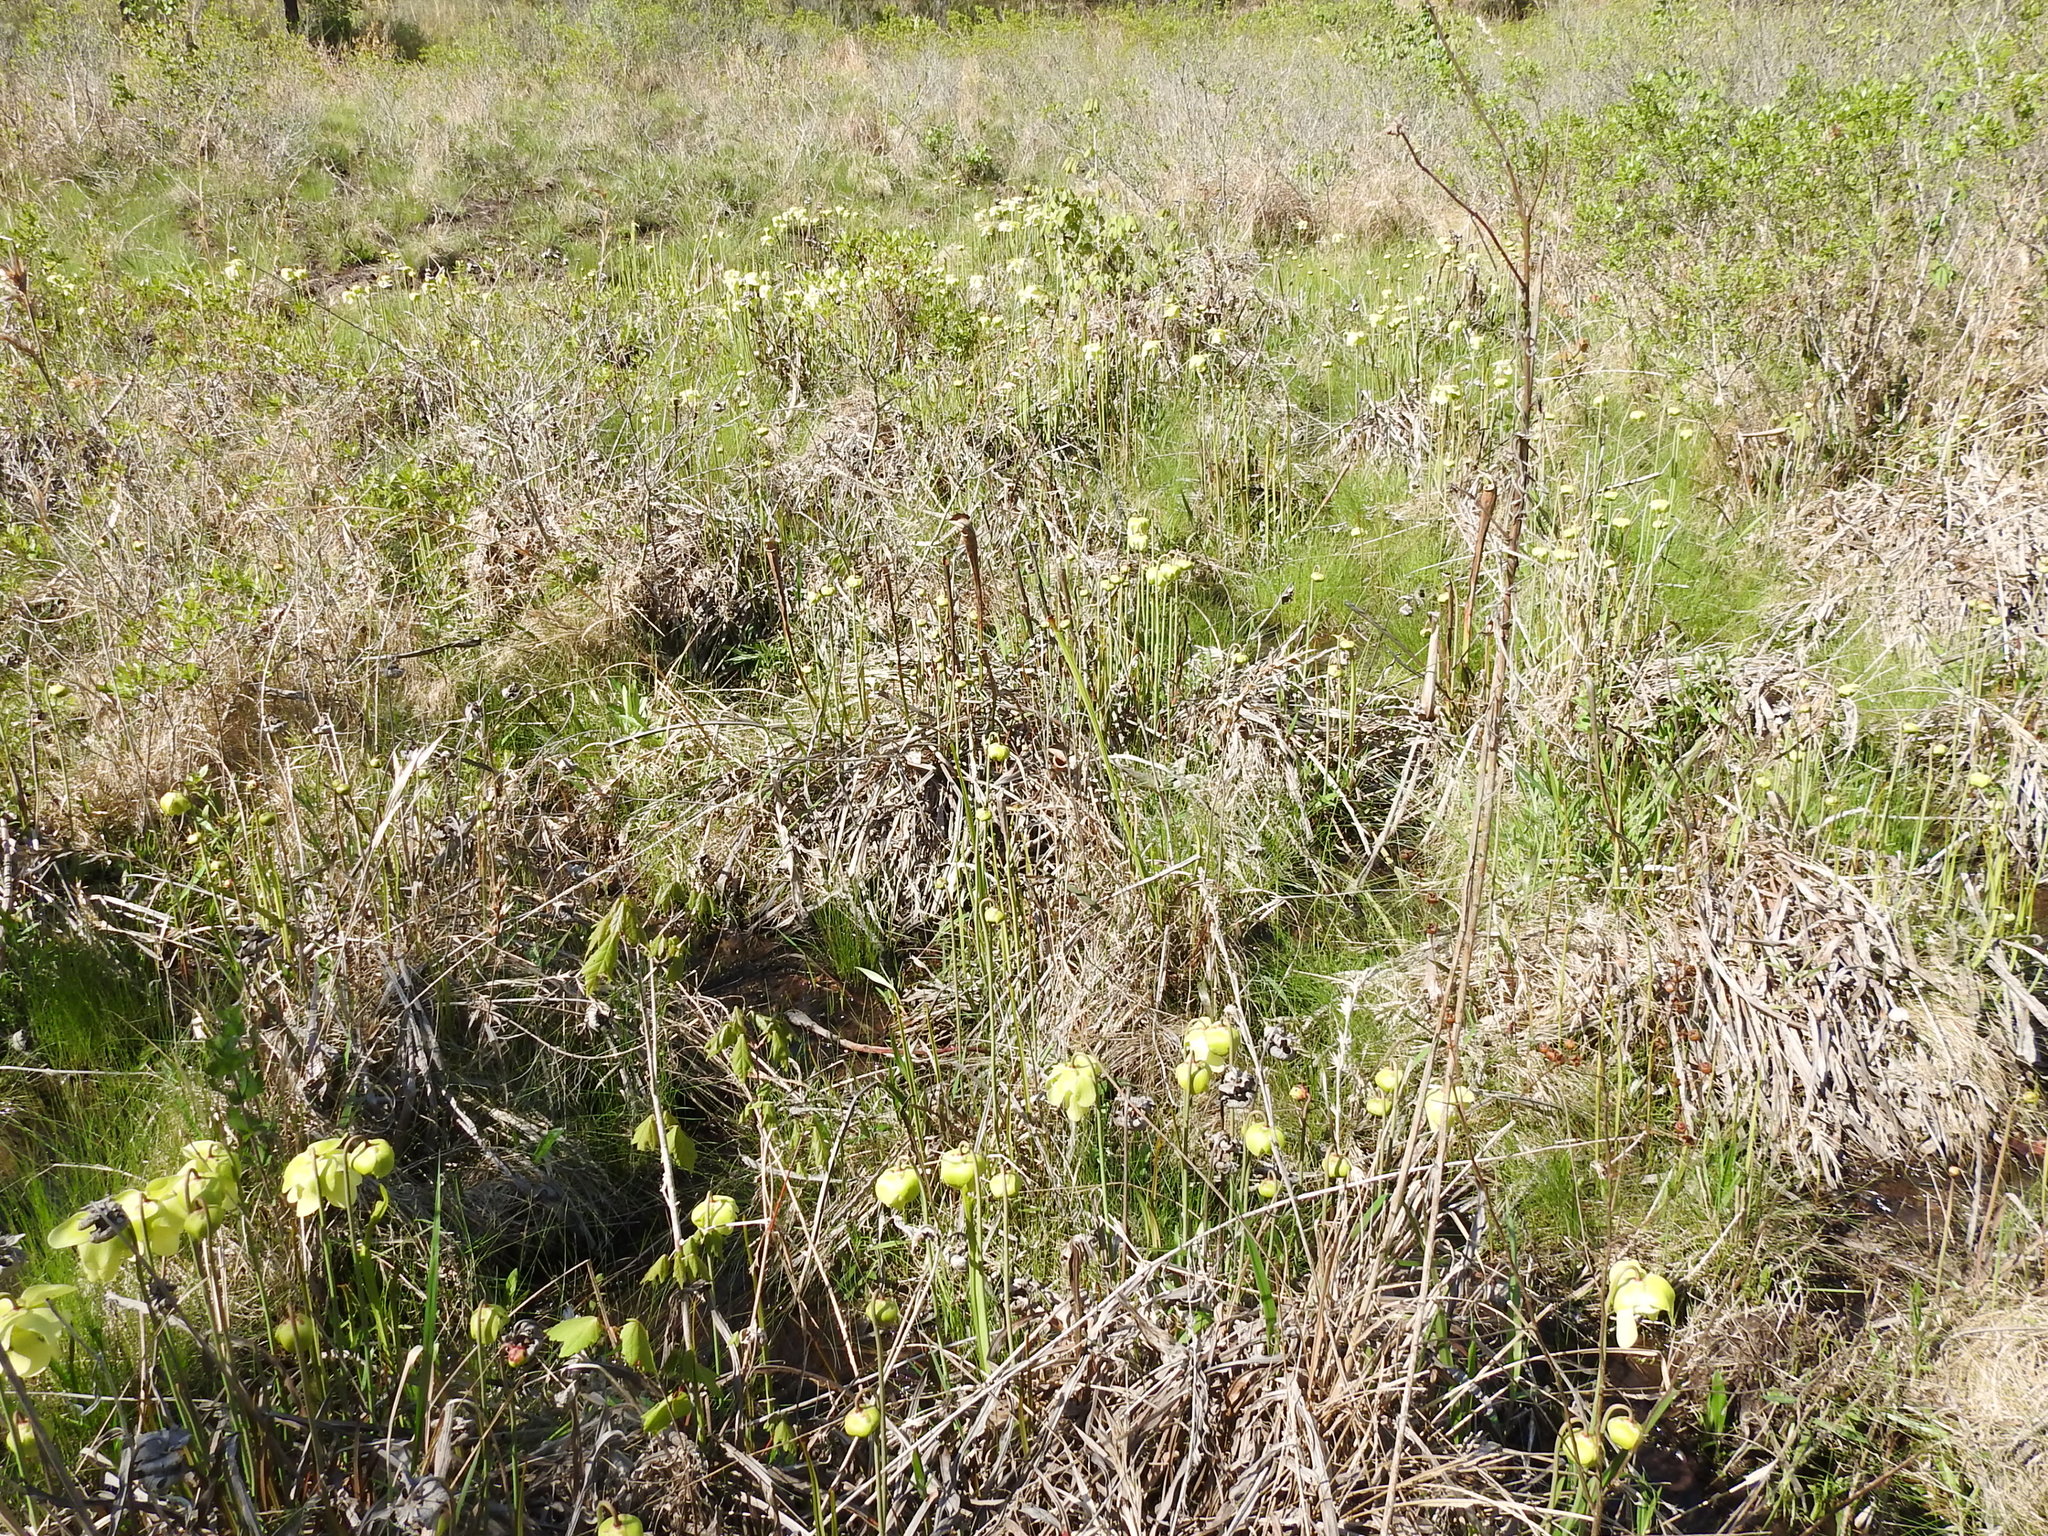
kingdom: Plantae
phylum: Tracheophyta
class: Magnoliopsida
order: Ericales
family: Sarraceniaceae
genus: Sarracenia
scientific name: Sarracenia alata
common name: Yellow trumpets
